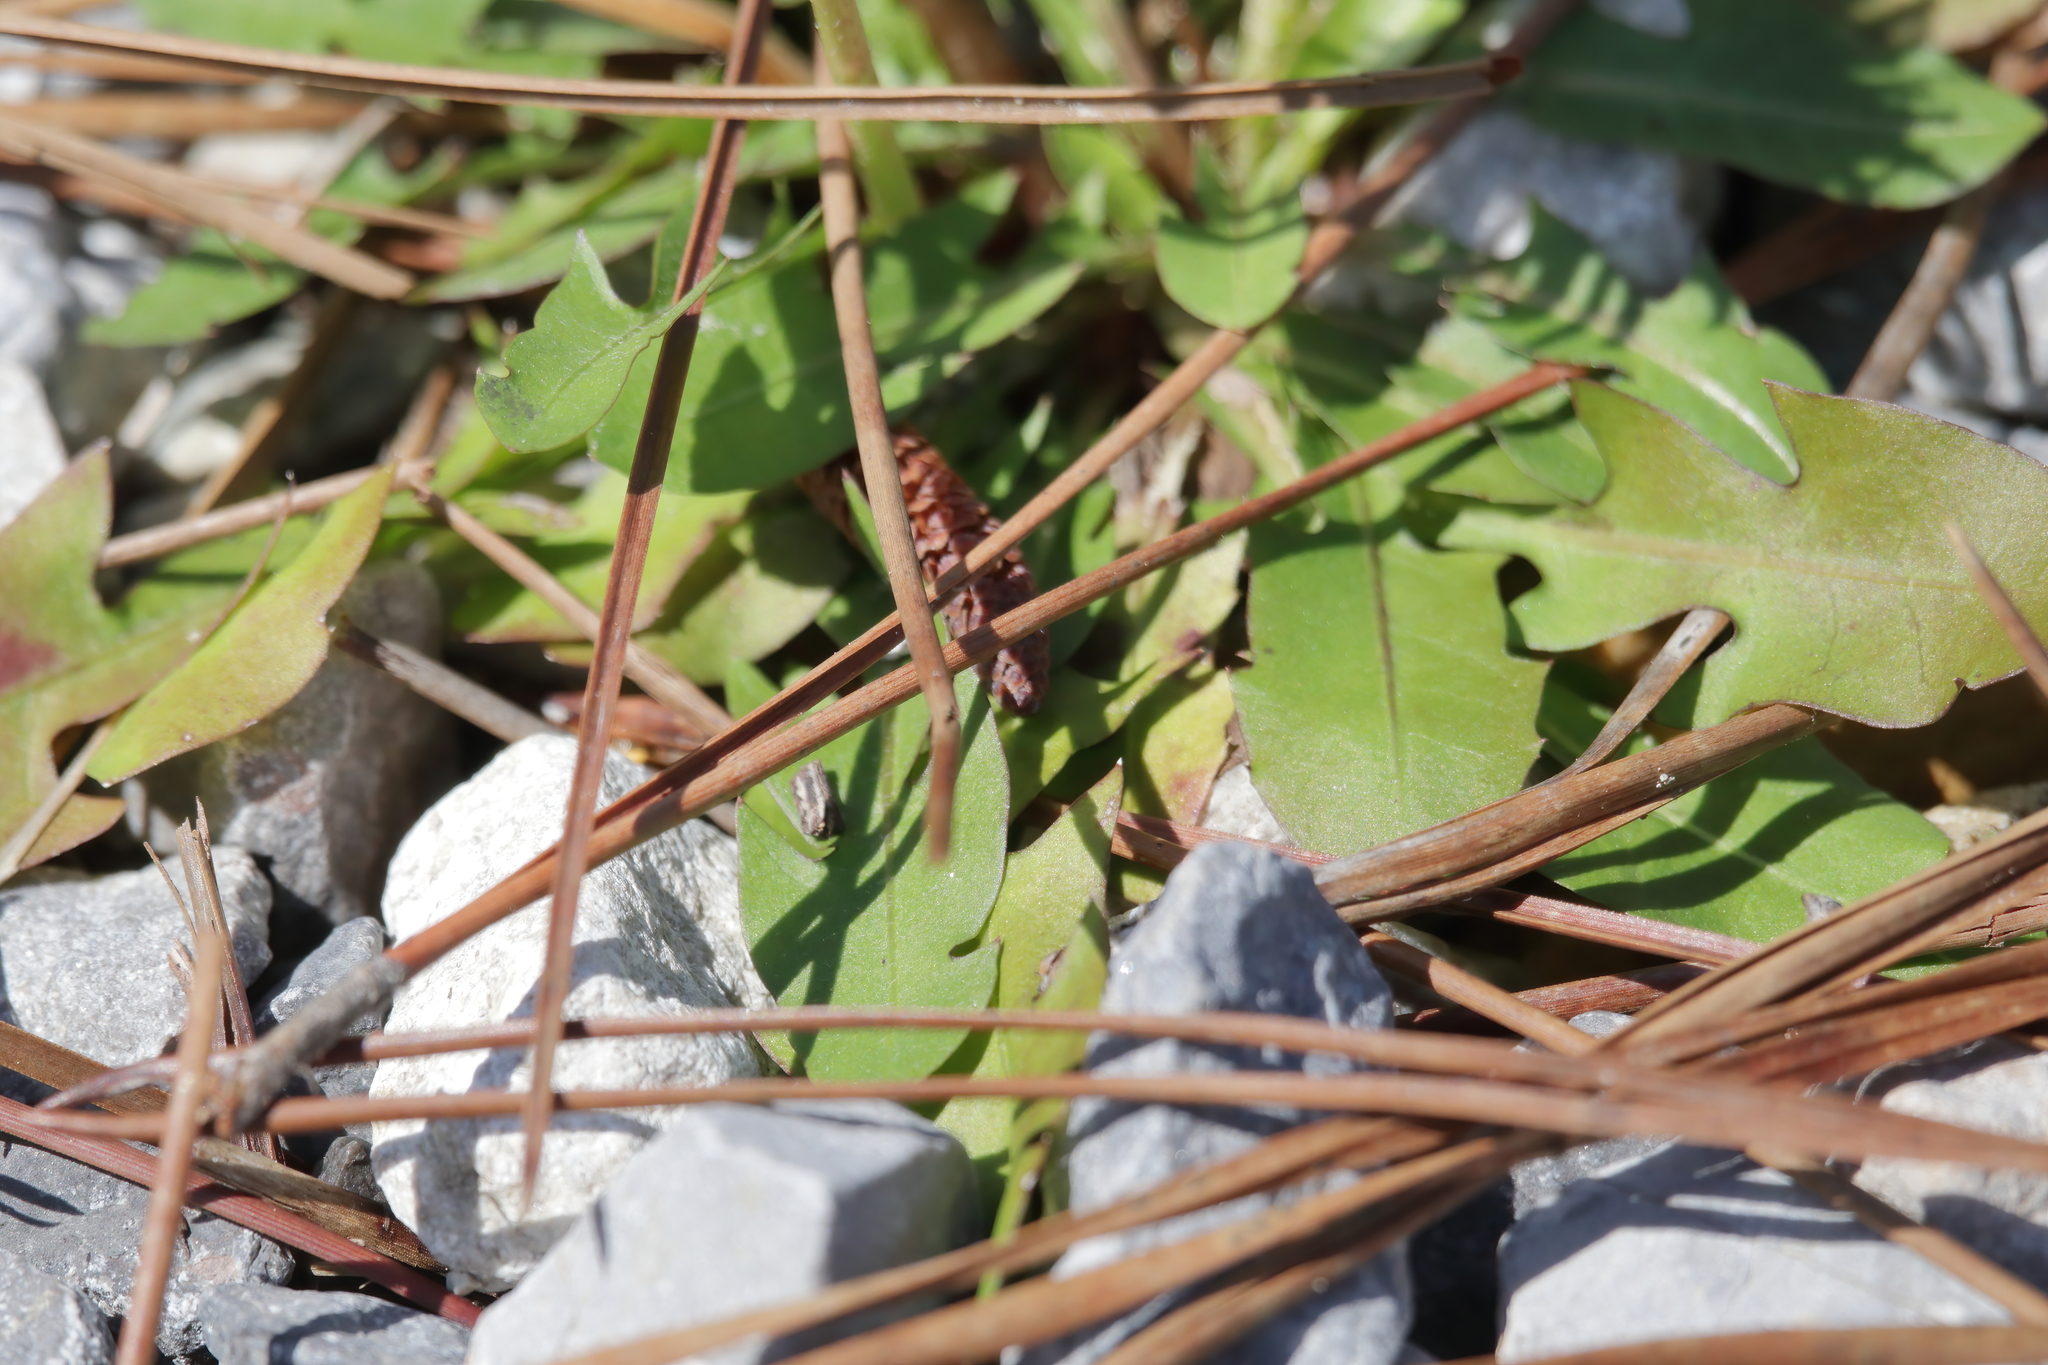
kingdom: Plantae
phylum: Tracheophyta
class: Magnoliopsida
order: Asterales
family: Asteraceae
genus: Taraxacum
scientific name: Taraxacum officinale
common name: Common dandelion
